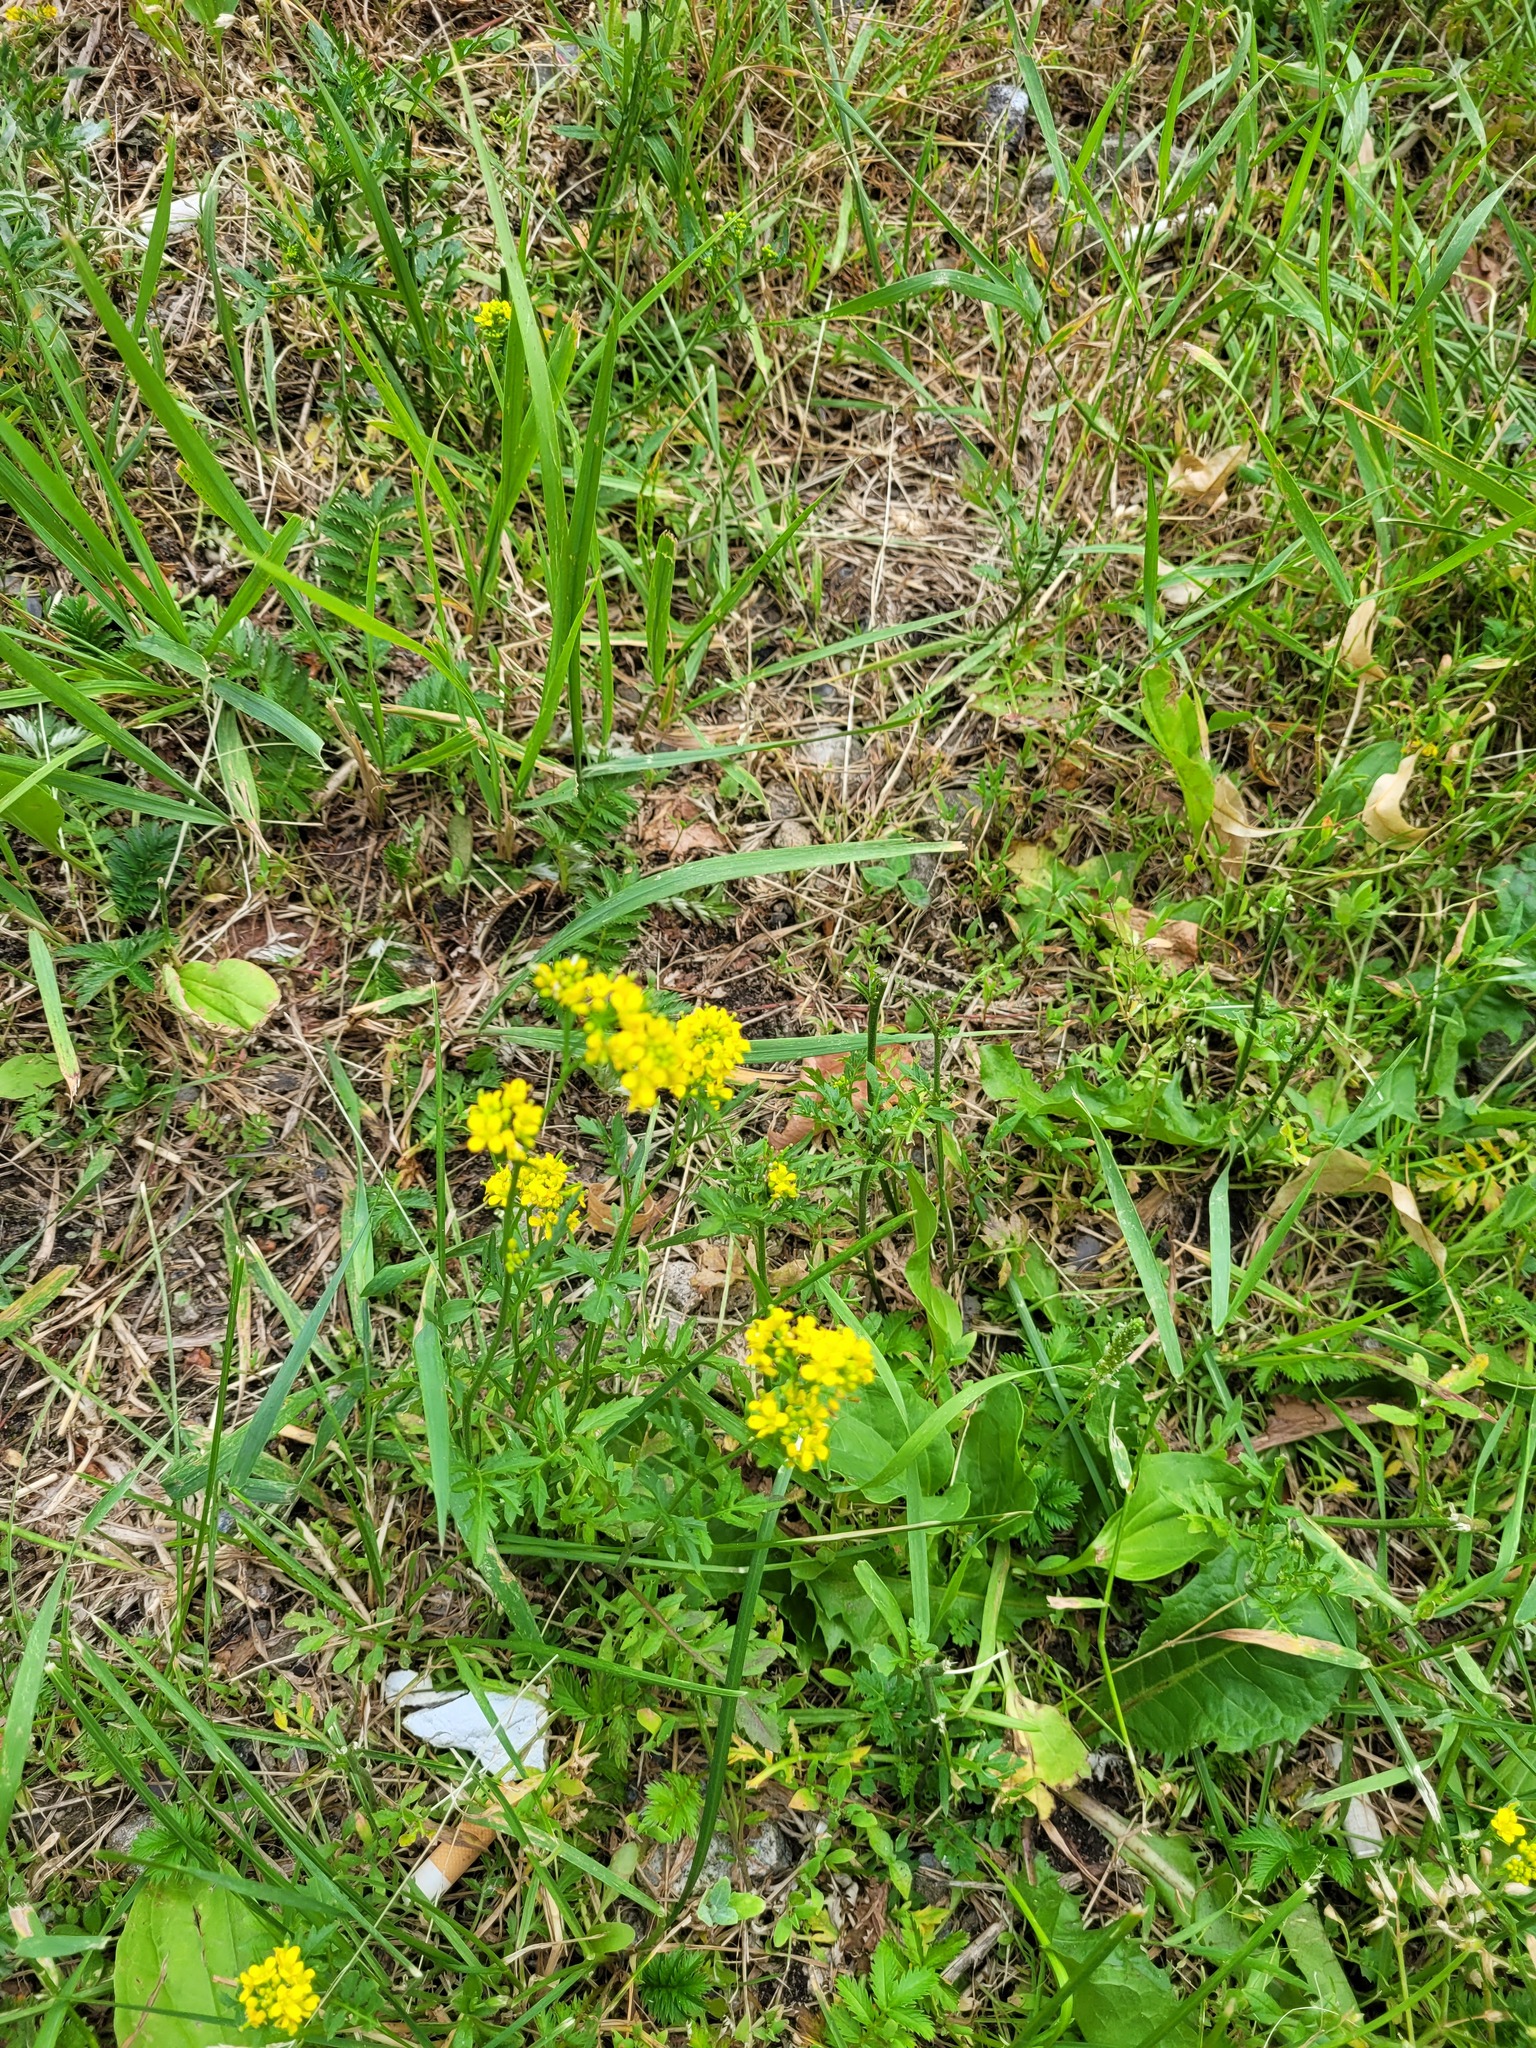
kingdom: Plantae
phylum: Tracheophyta
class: Magnoliopsida
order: Brassicales
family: Brassicaceae
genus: Rorippa
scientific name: Rorippa sylvestris
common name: Creeping yellowcress
